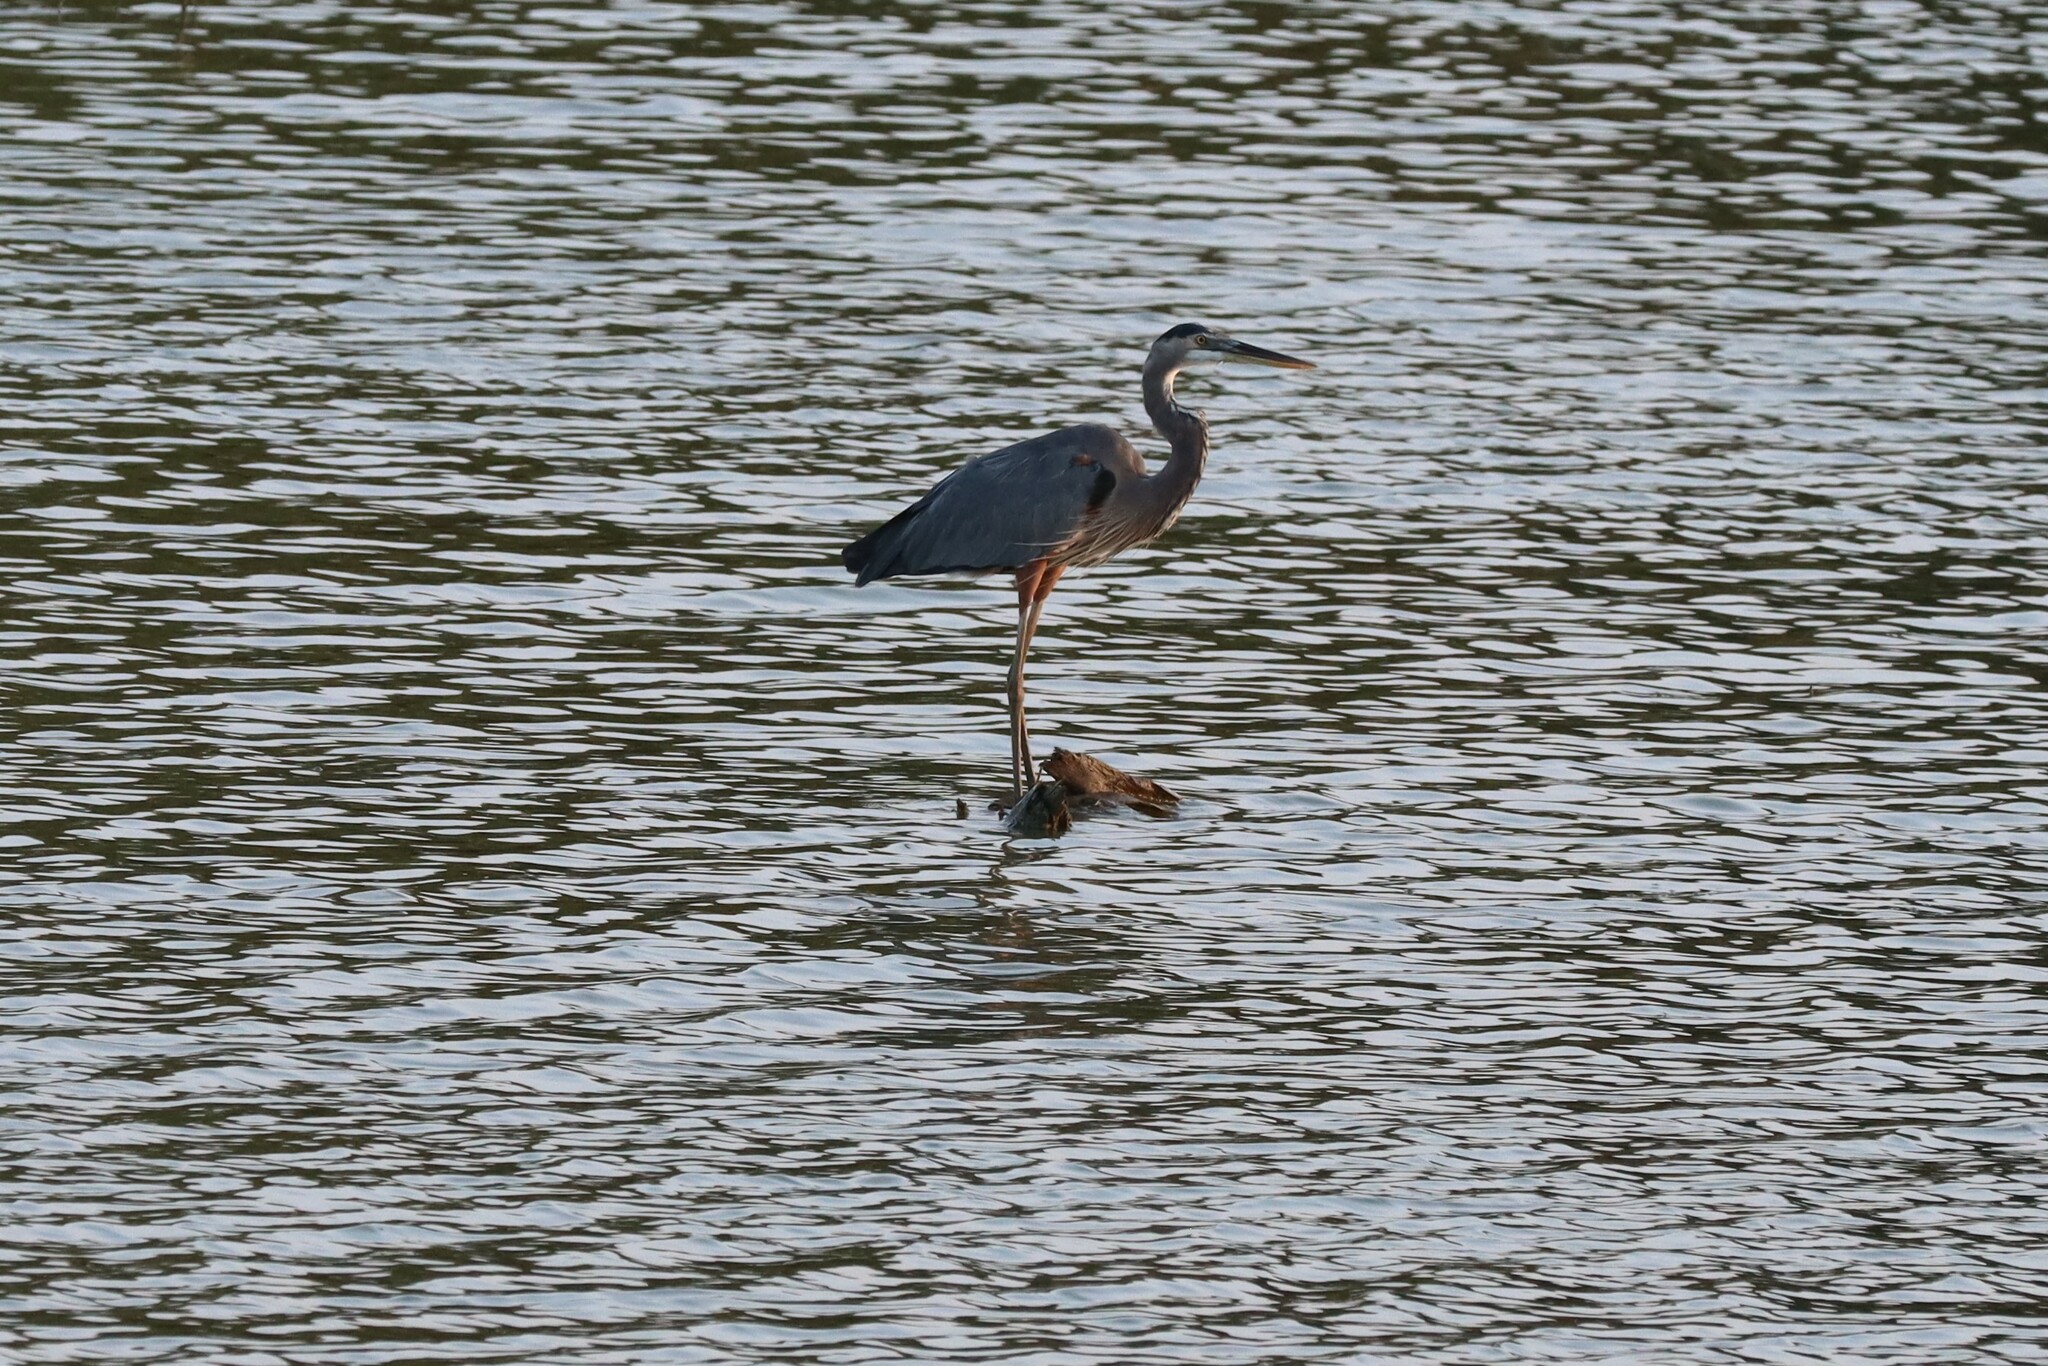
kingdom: Animalia
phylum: Chordata
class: Aves
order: Pelecaniformes
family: Ardeidae
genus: Ardea
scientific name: Ardea herodias
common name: Great blue heron
